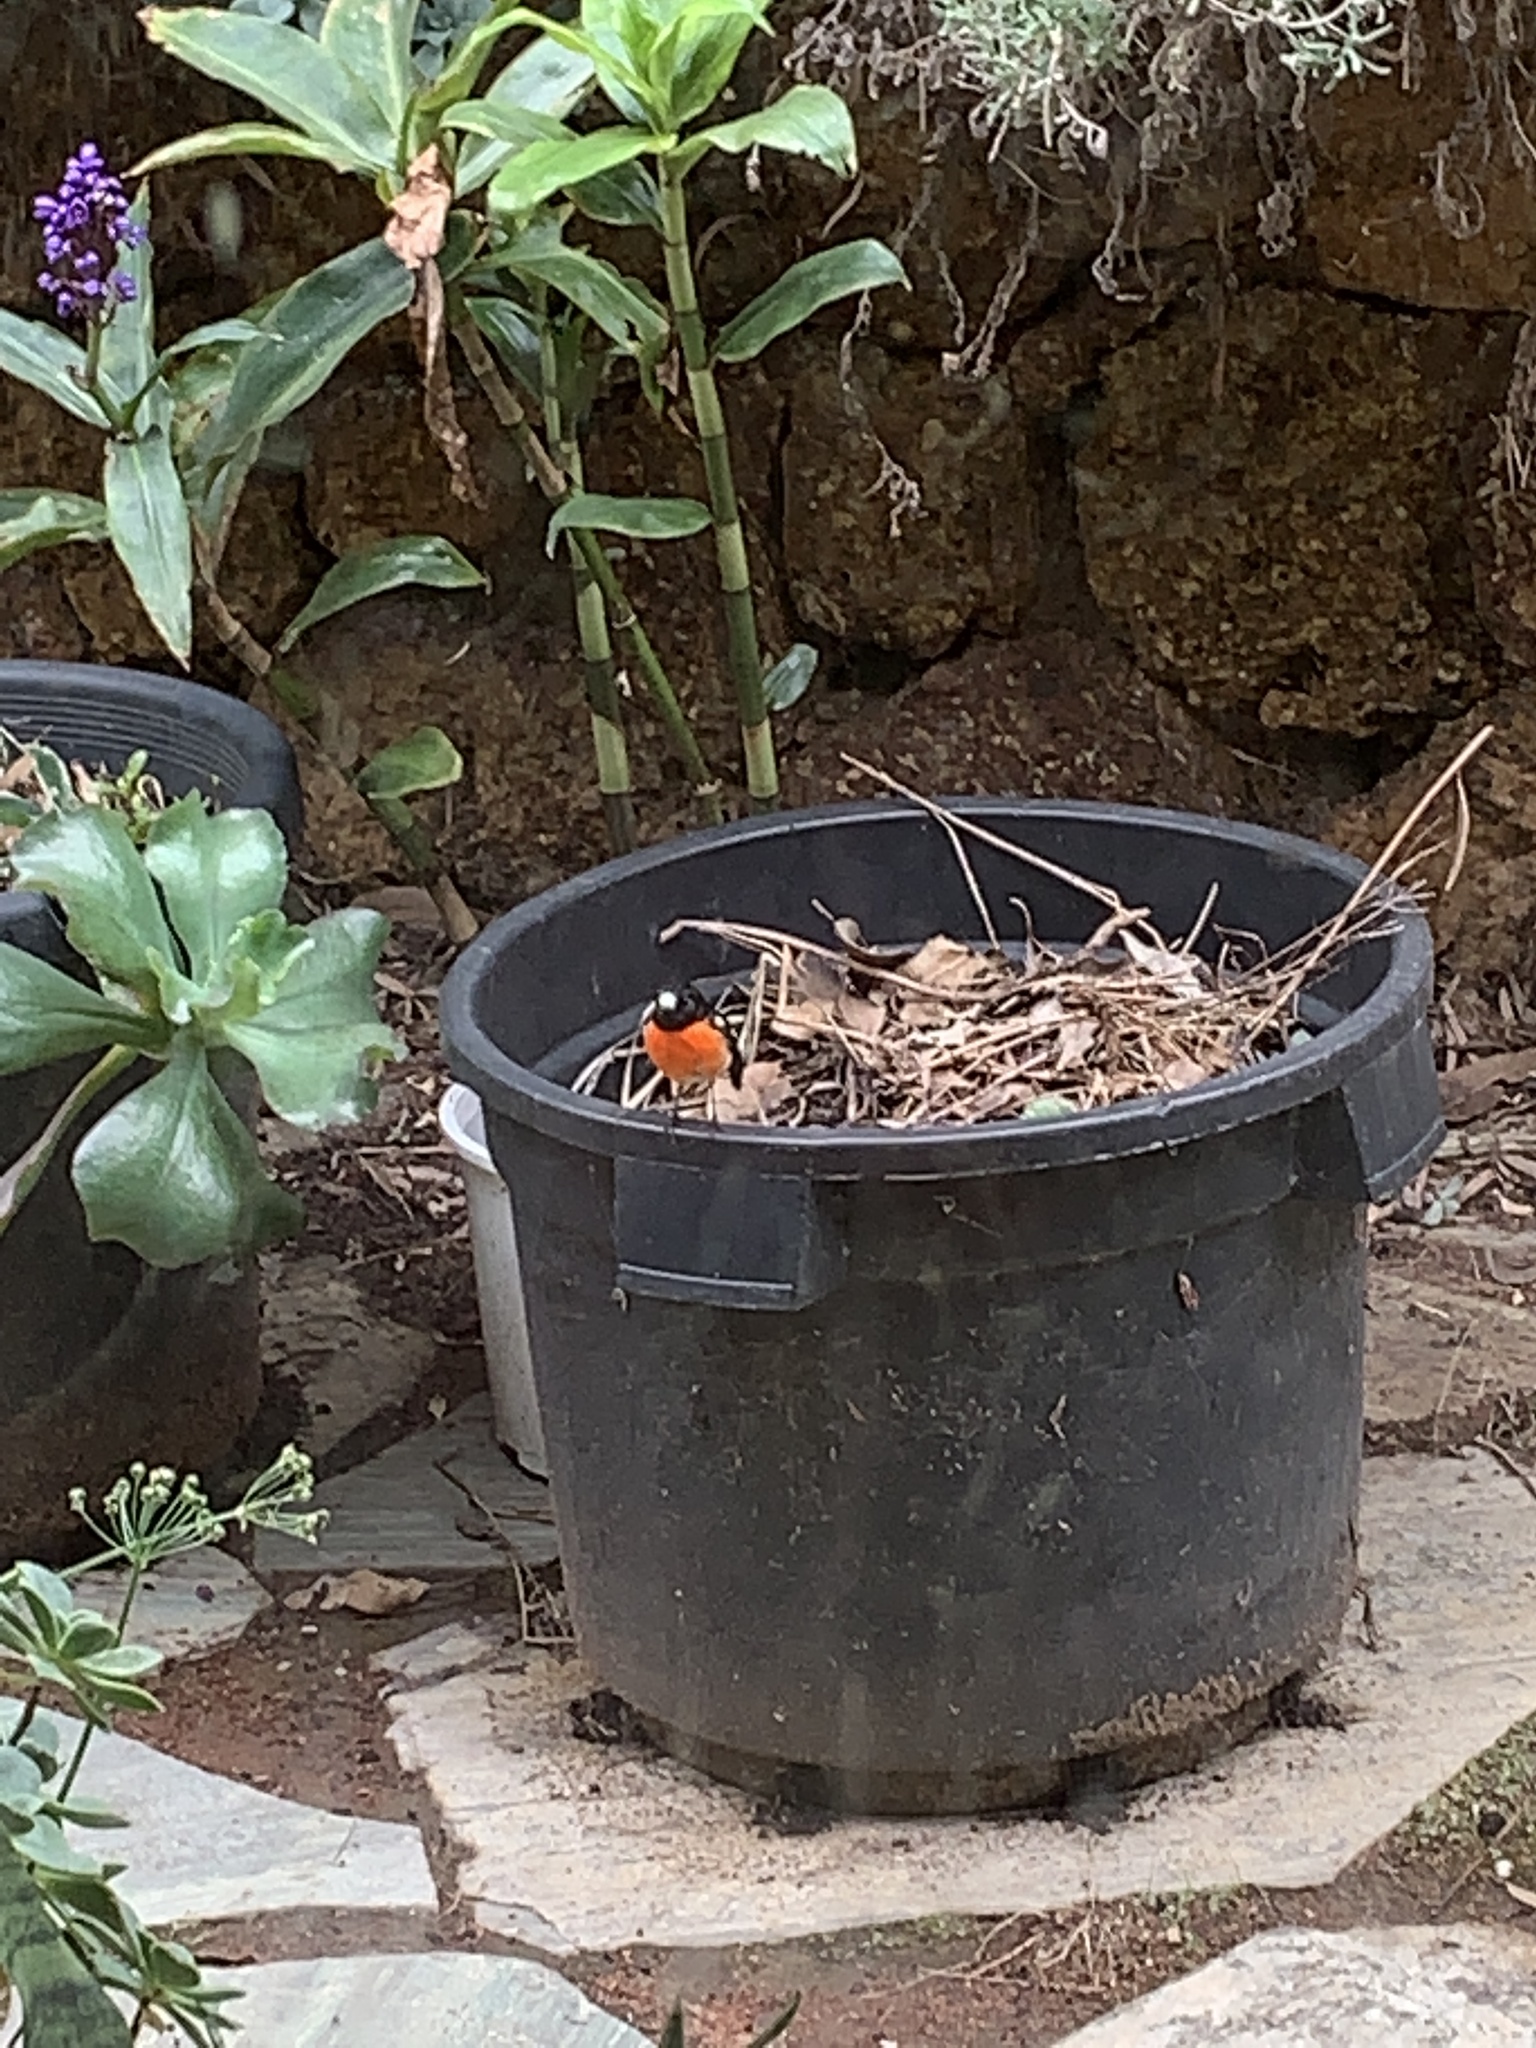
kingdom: Animalia
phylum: Chordata
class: Aves
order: Passeriformes
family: Petroicidae
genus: Petroica
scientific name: Petroica boodang
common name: Scarlet robin
